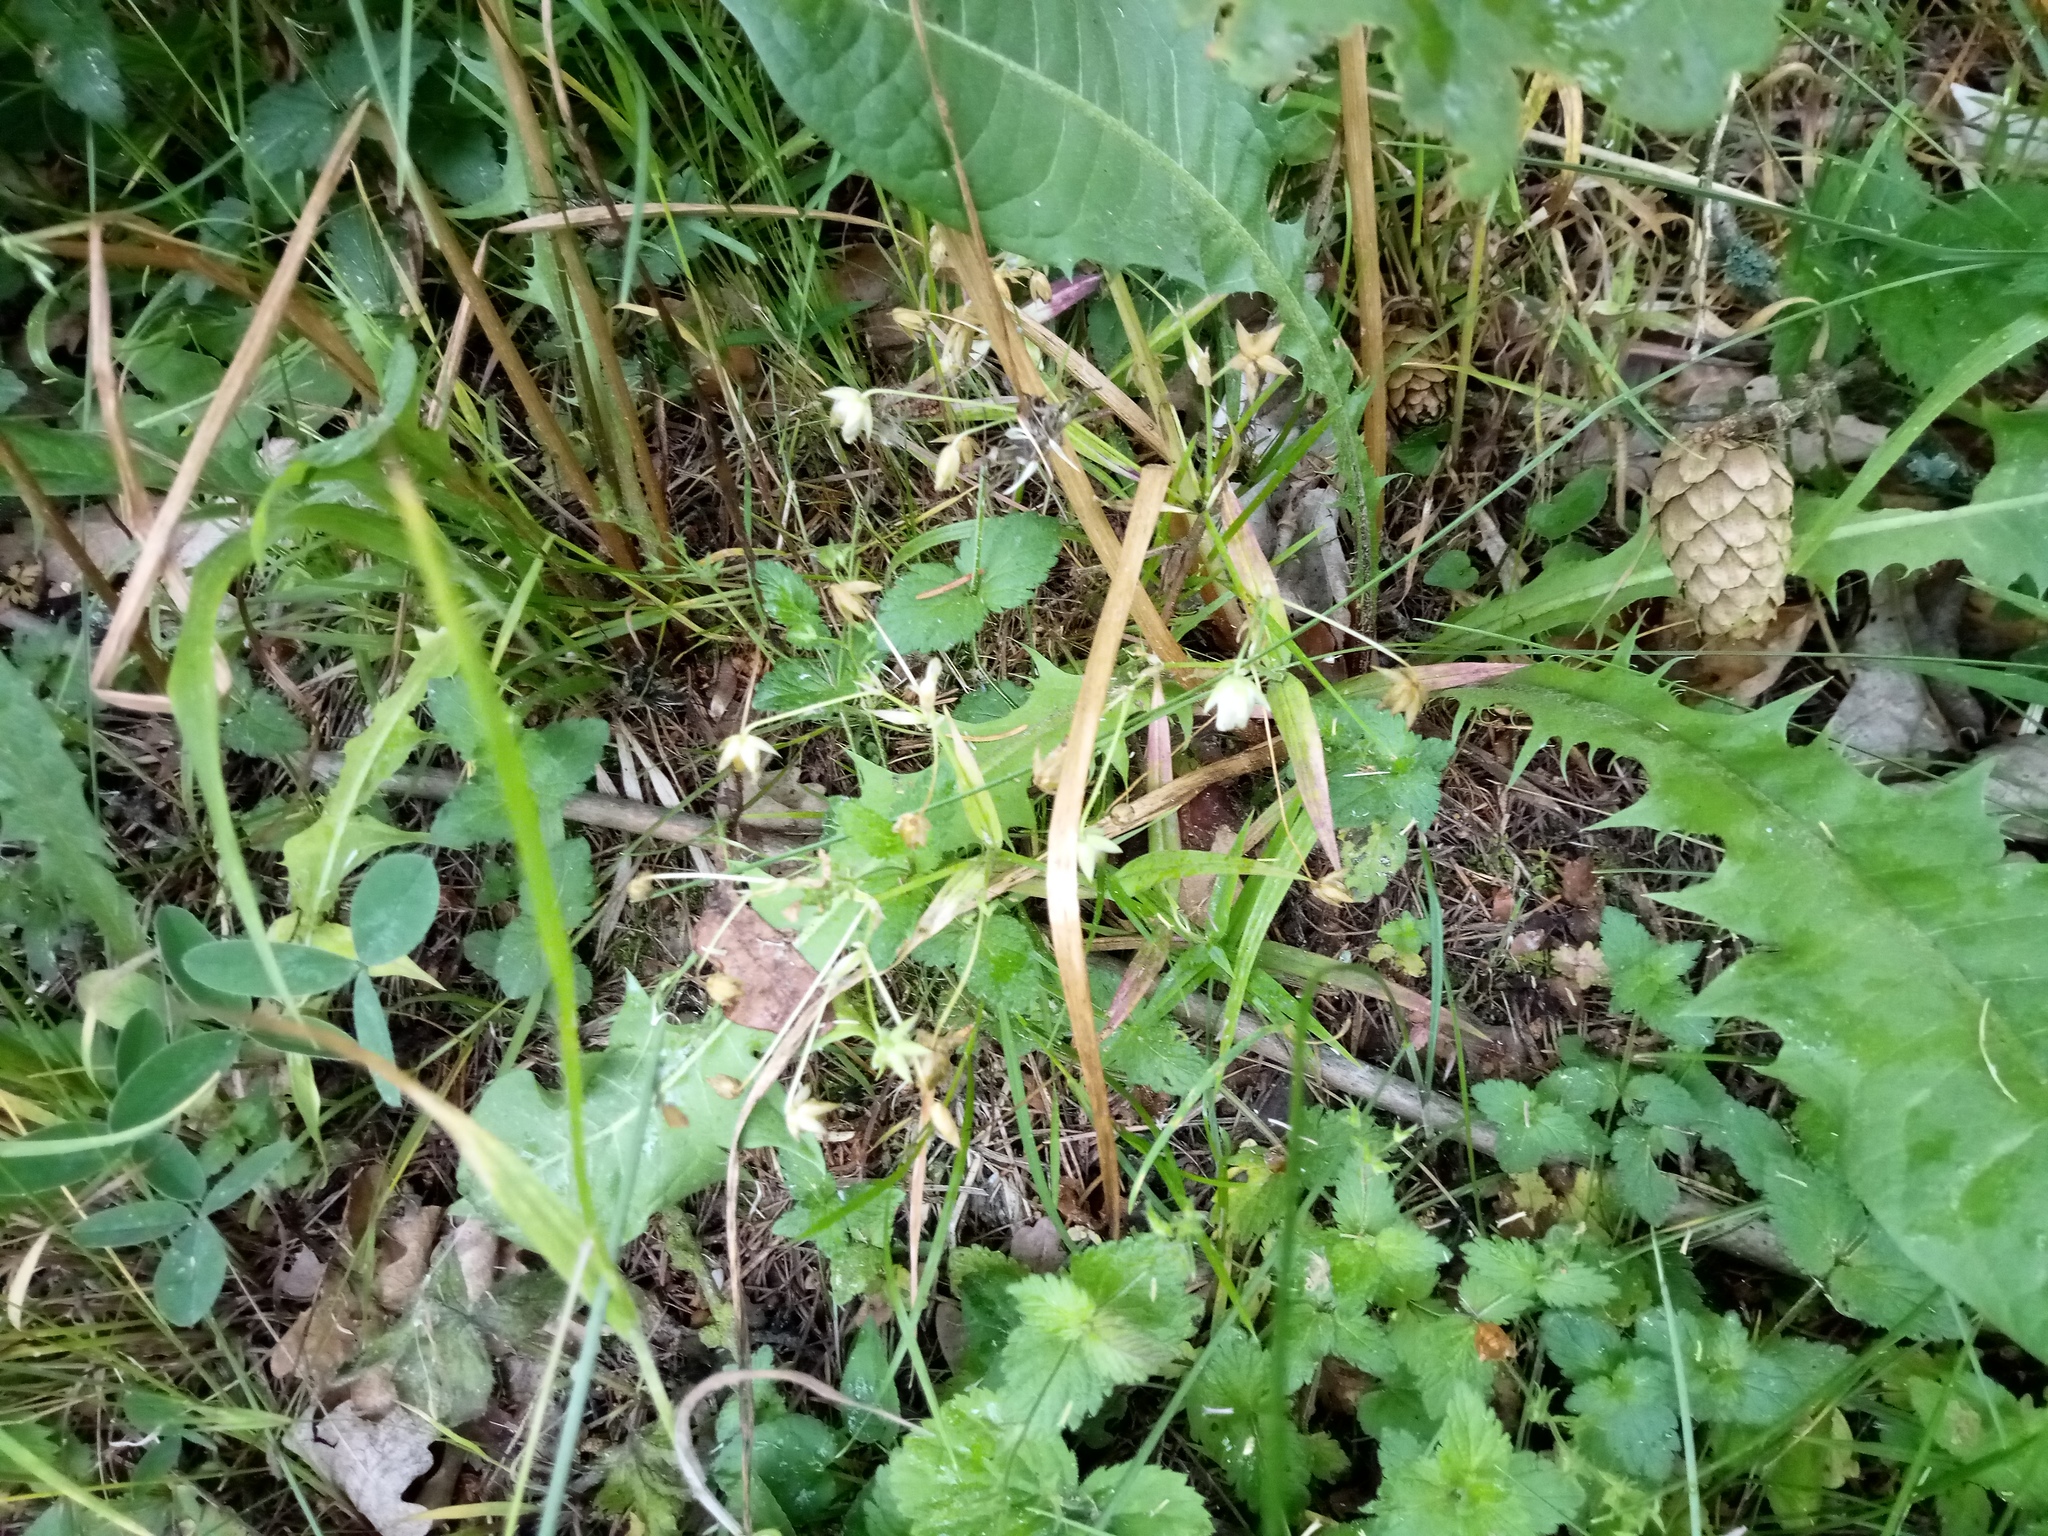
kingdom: Plantae
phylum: Tracheophyta
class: Magnoliopsida
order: Caryophyllales
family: Caryophyllaceae
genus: Rabelera
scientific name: Rabelera holostea
